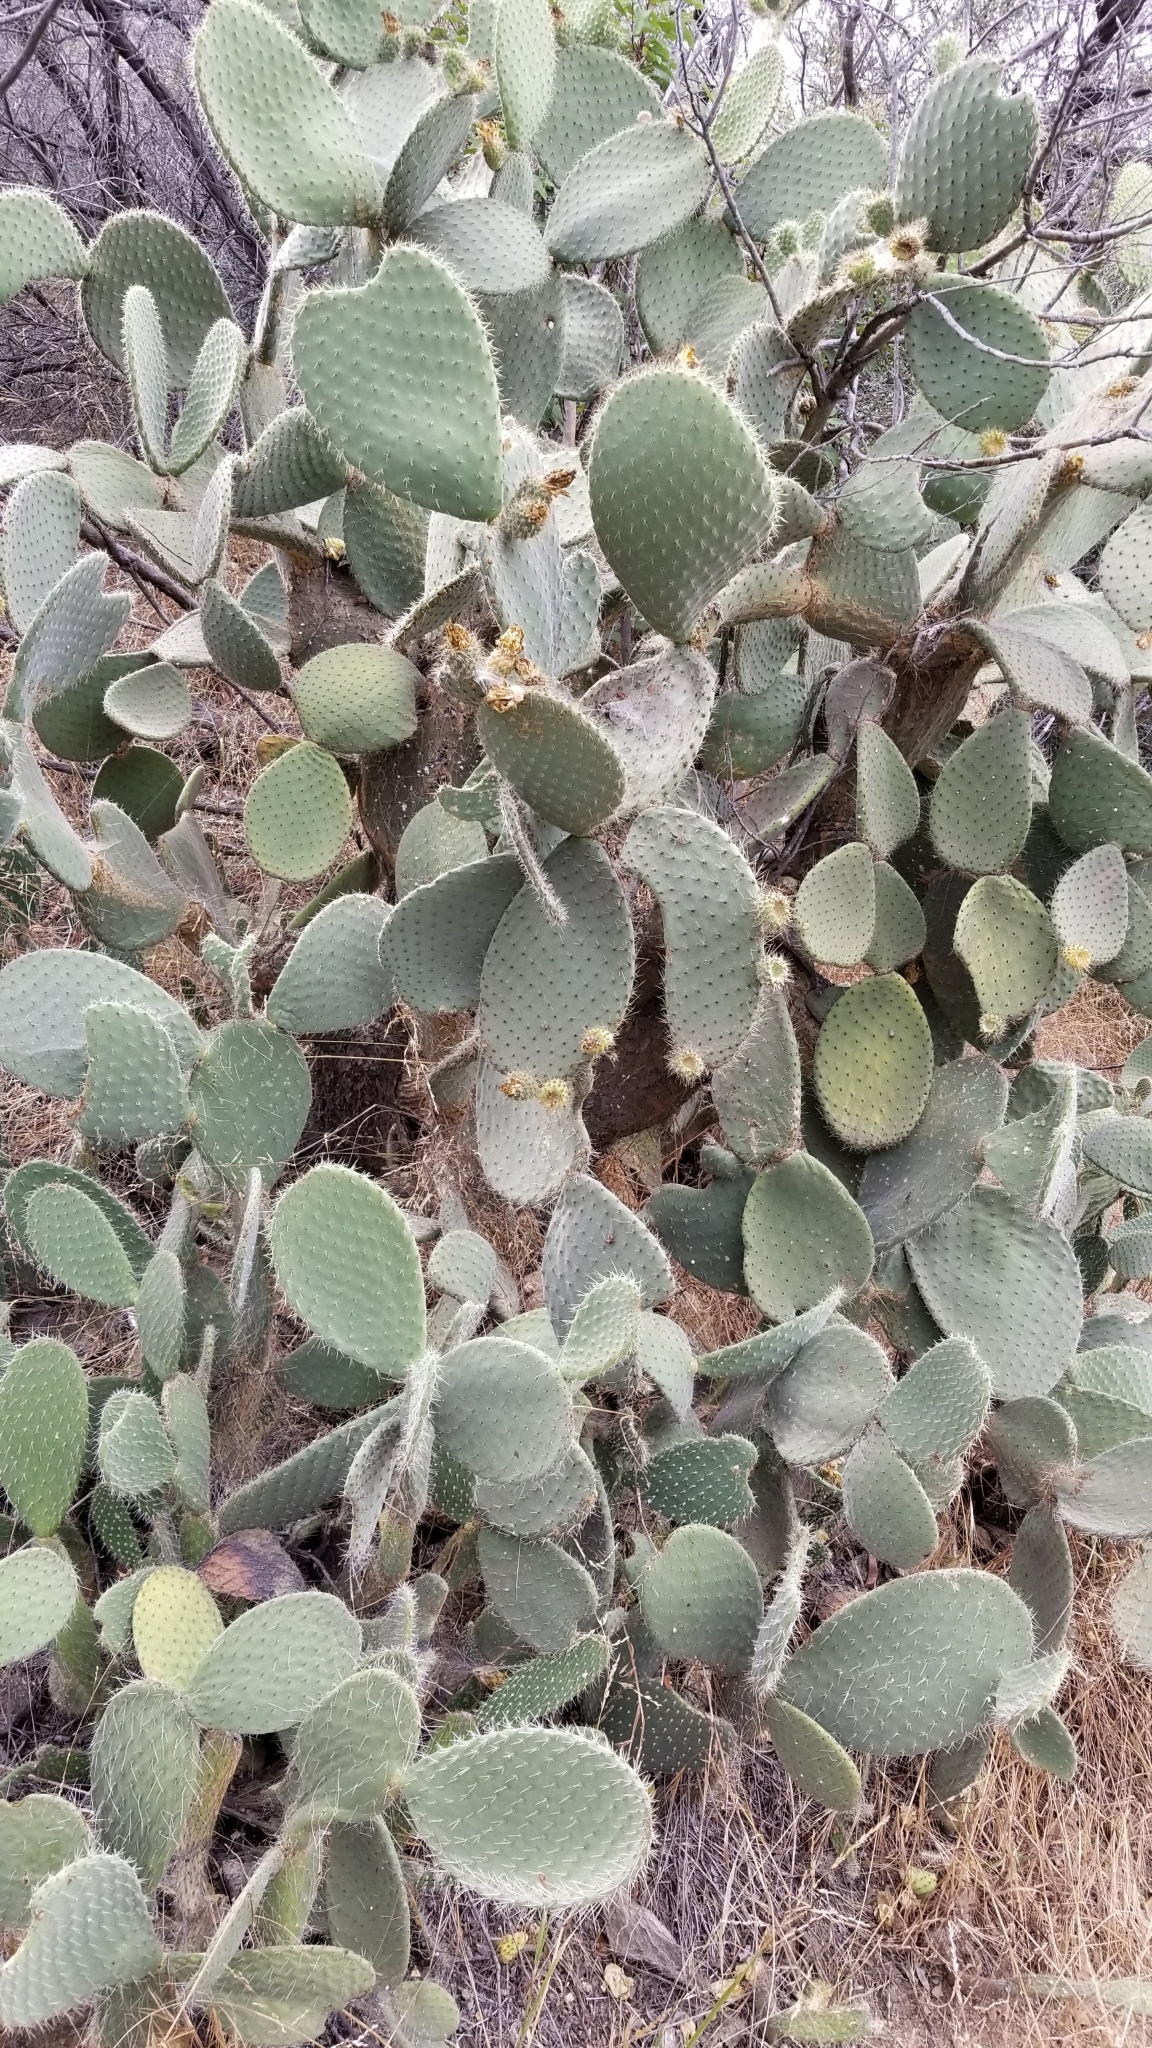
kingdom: Plantae
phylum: Tracheophyta
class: Magnoliopsida
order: Caryophyllales
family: Cactaceae
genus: Opuntia
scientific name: Opuntia leucotricha
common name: Arborescent pricklypear
